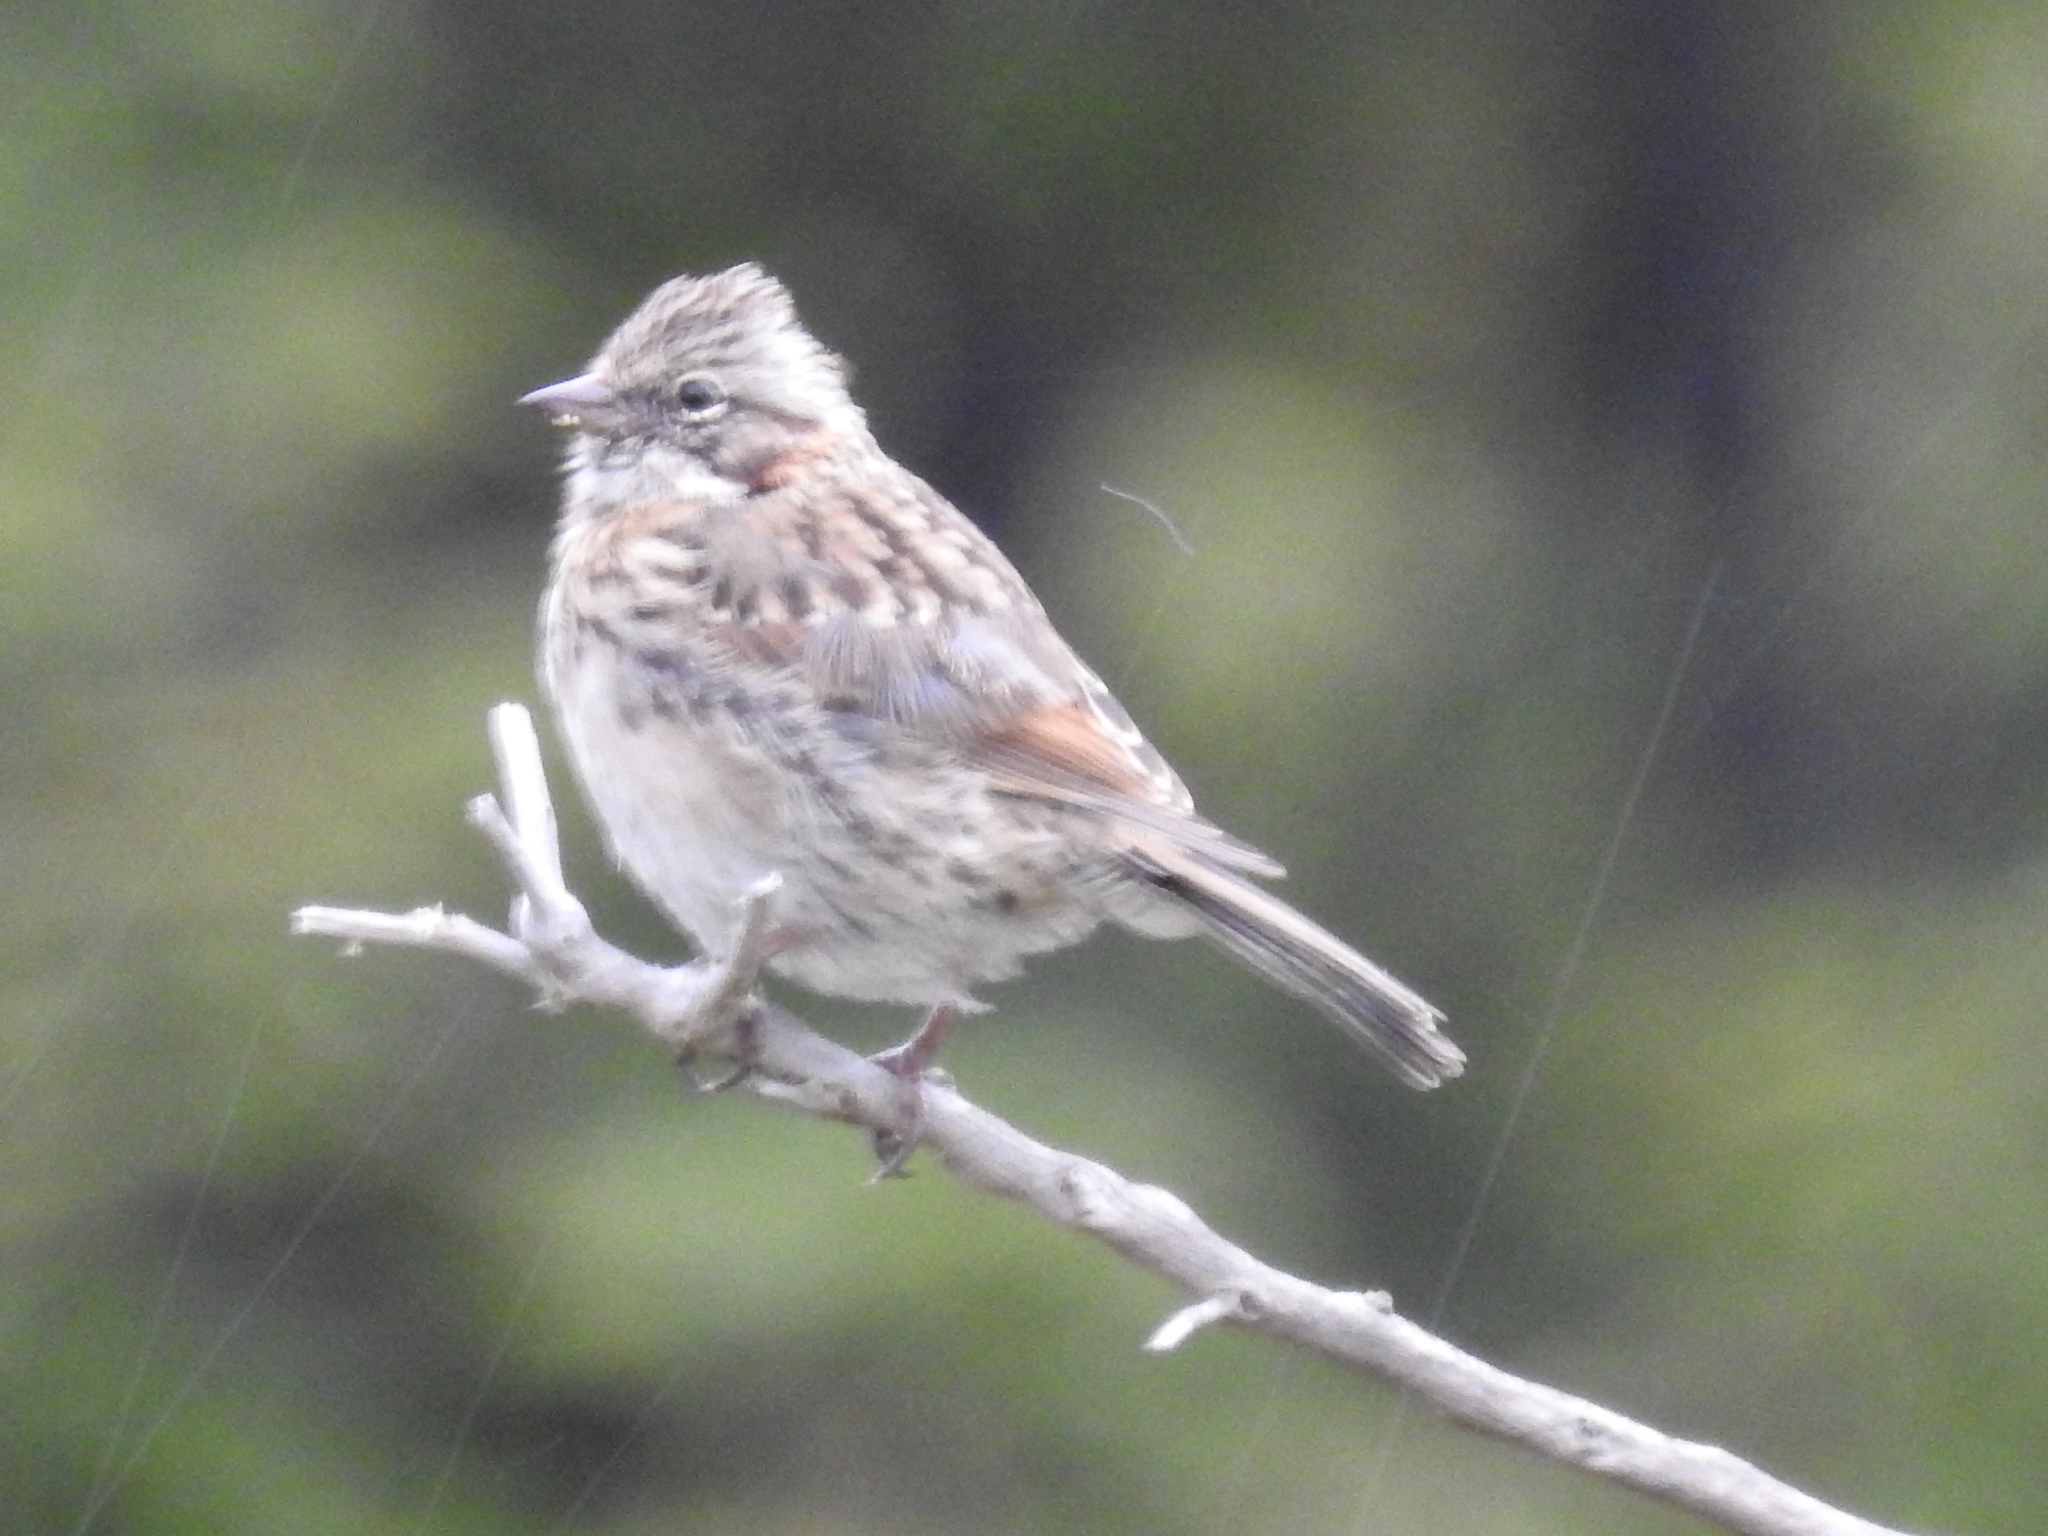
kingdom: Animalia
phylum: Chordata
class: Aves
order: Passeriformes
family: Passerellidae
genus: Zonotrichia
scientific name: Zonotrichia capensis
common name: Rufous-collared sparrow
